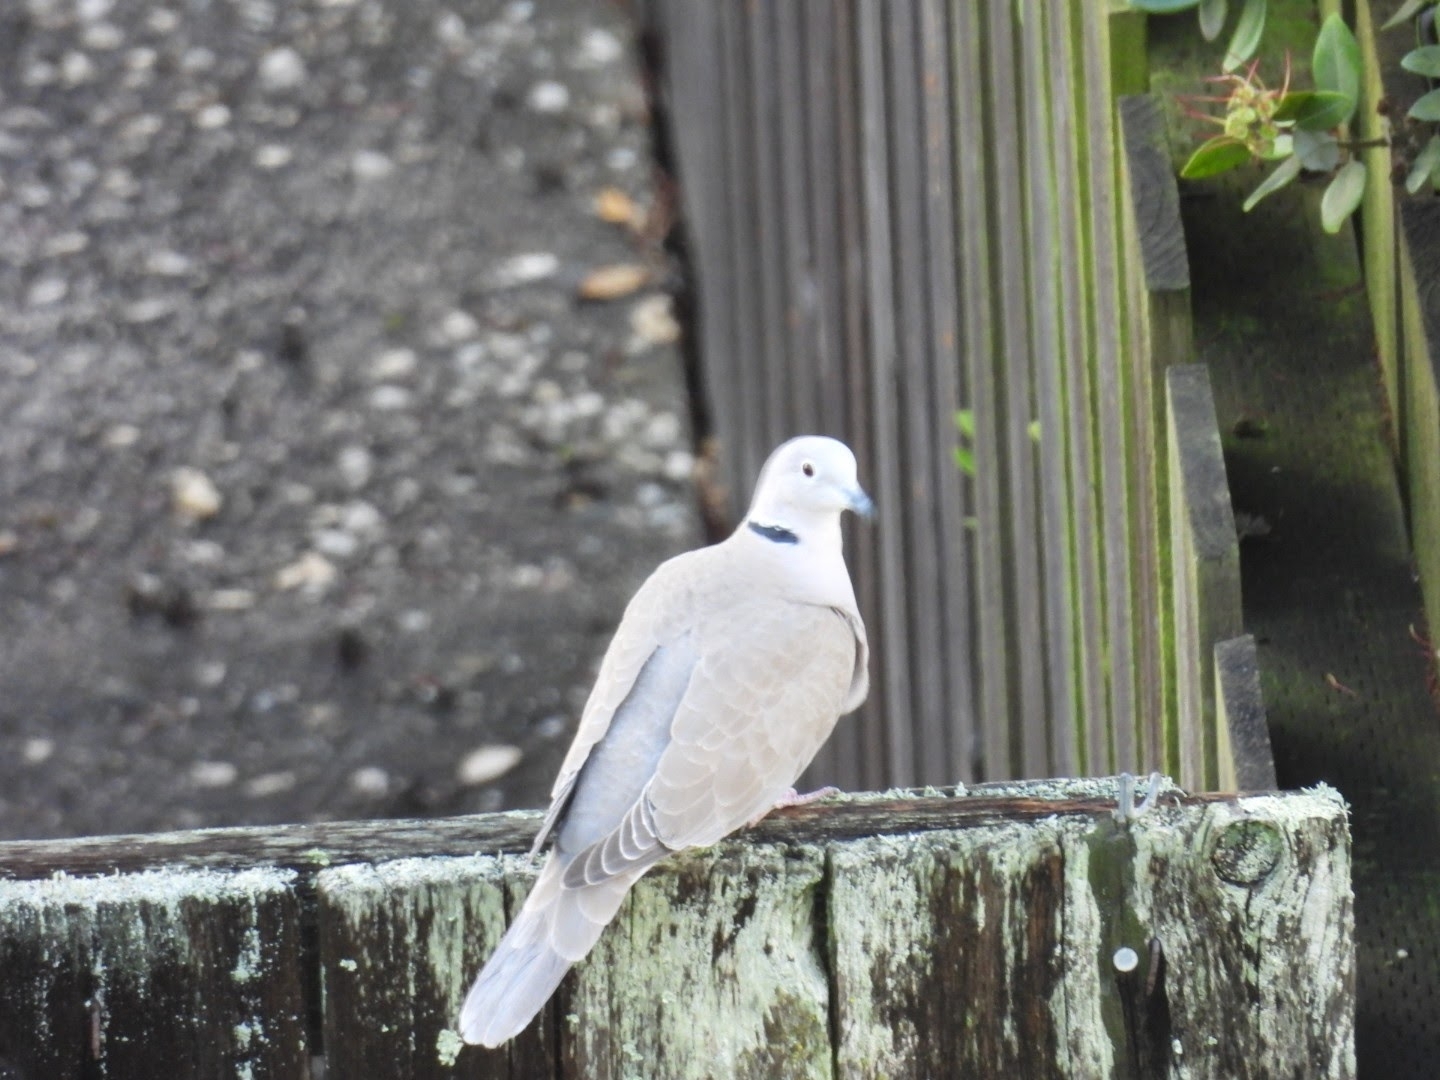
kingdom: Animalia
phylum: Chordata
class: Aves
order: Columbiformes
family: Columbidae
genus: Streptopelia
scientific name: Streptopelia decaocto
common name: Eurasian collared dove
